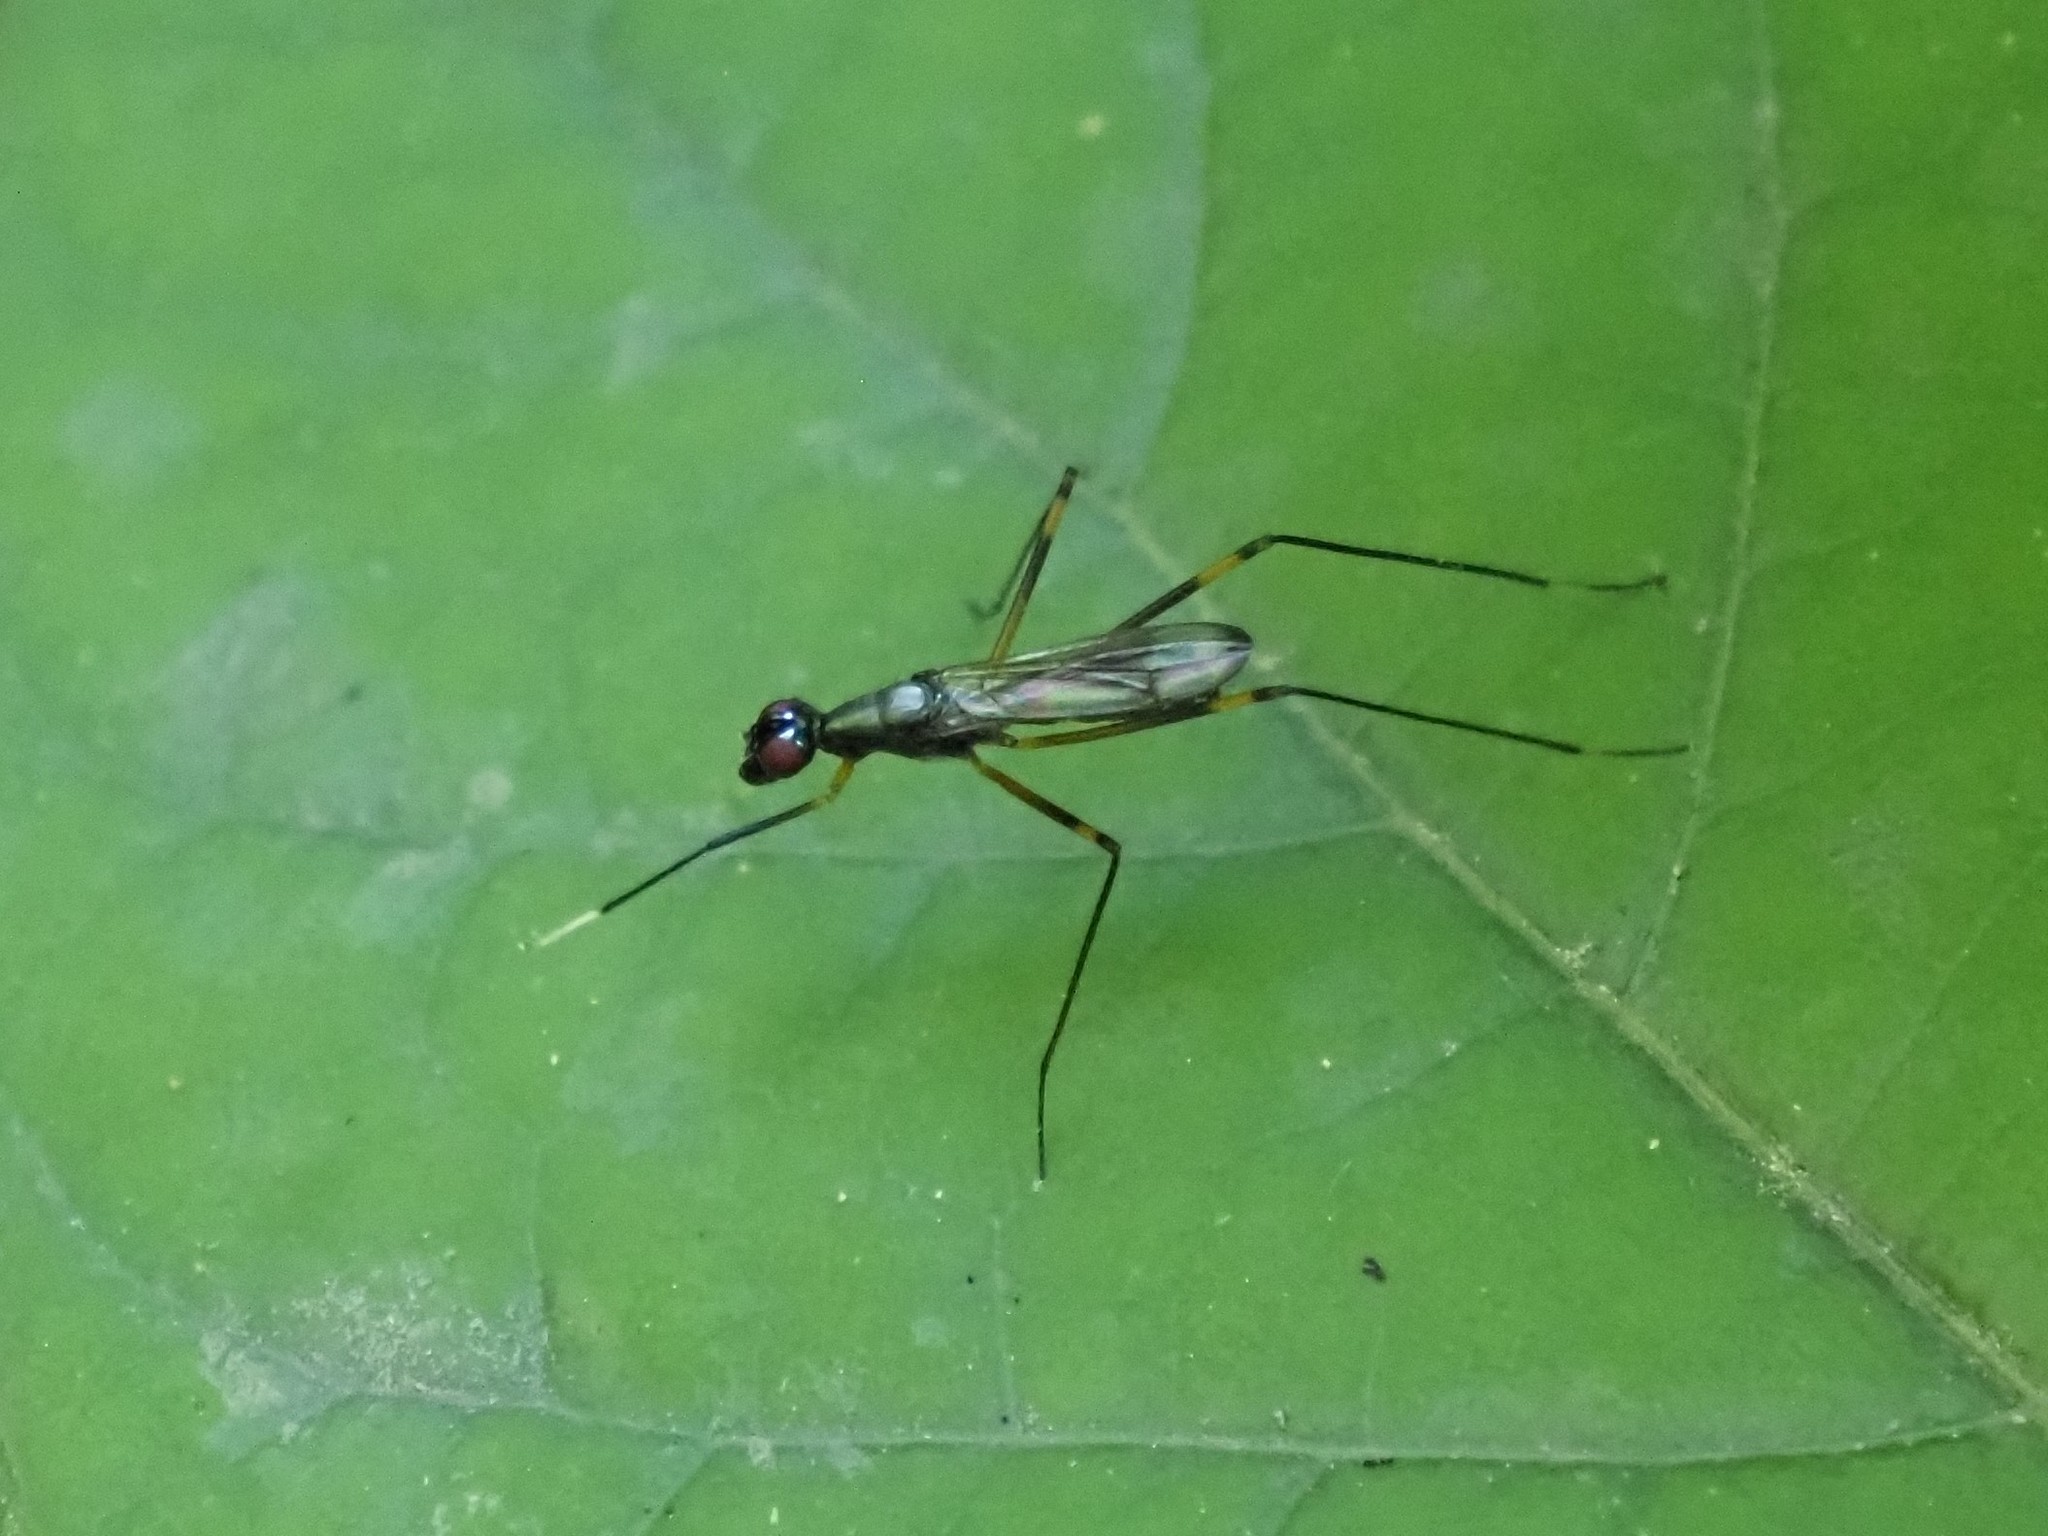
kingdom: Animalia
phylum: Arthropoda
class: Insecta
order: Diptera
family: Micropezidae
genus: Rainieria
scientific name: Rainieria antennaepes
